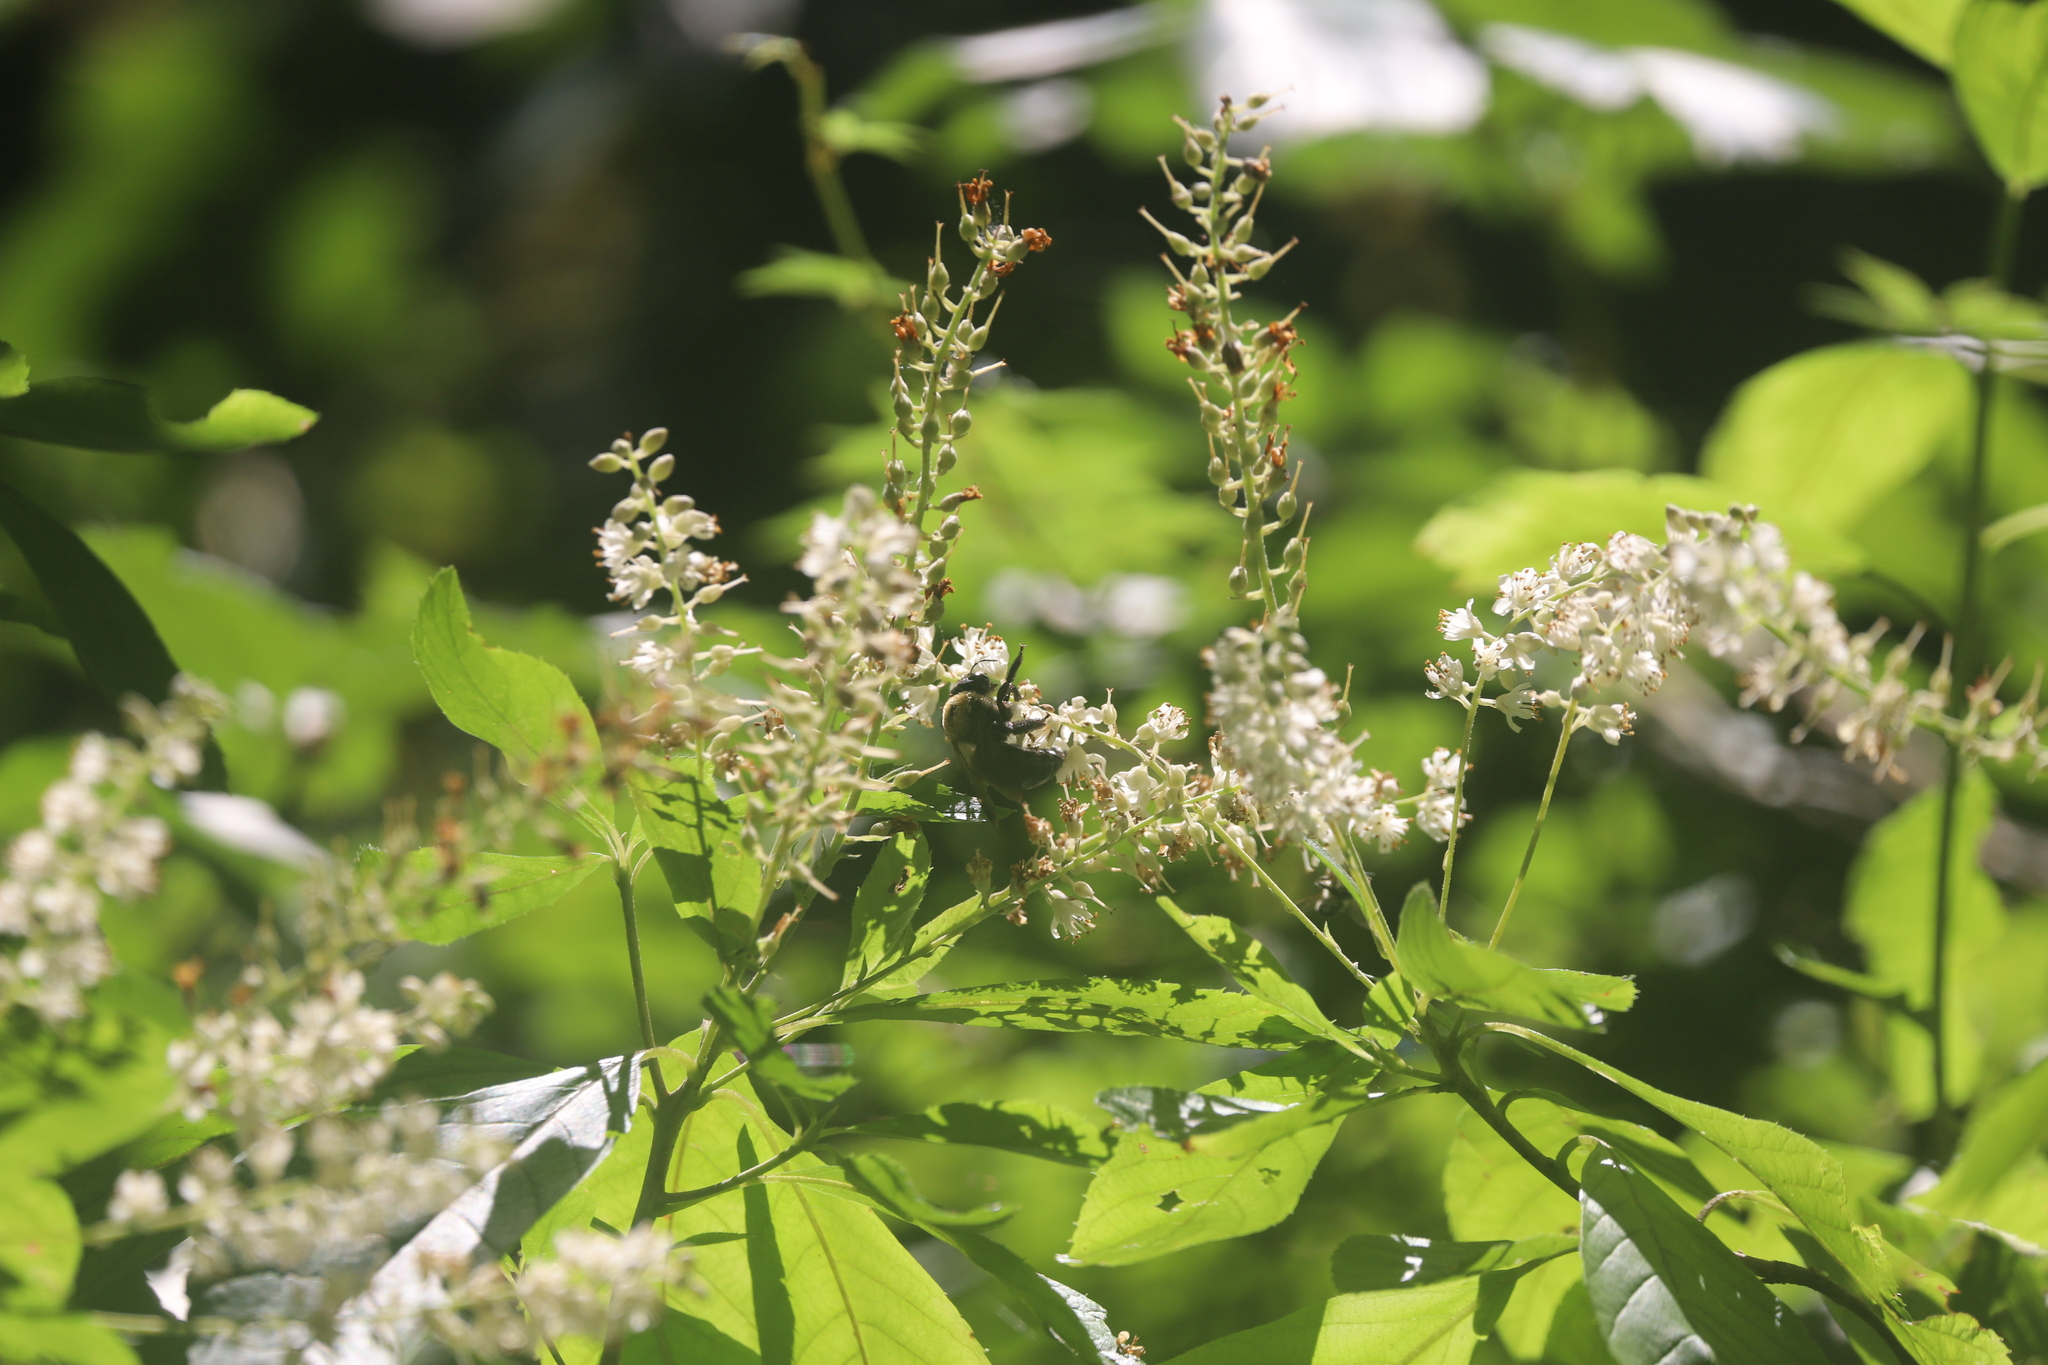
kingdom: Animalia
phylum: Arthropoda
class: Insecta
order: Hymenoptera
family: Apidae
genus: Xylocopa
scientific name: Xylocopa virginica
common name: Carpenter bee
